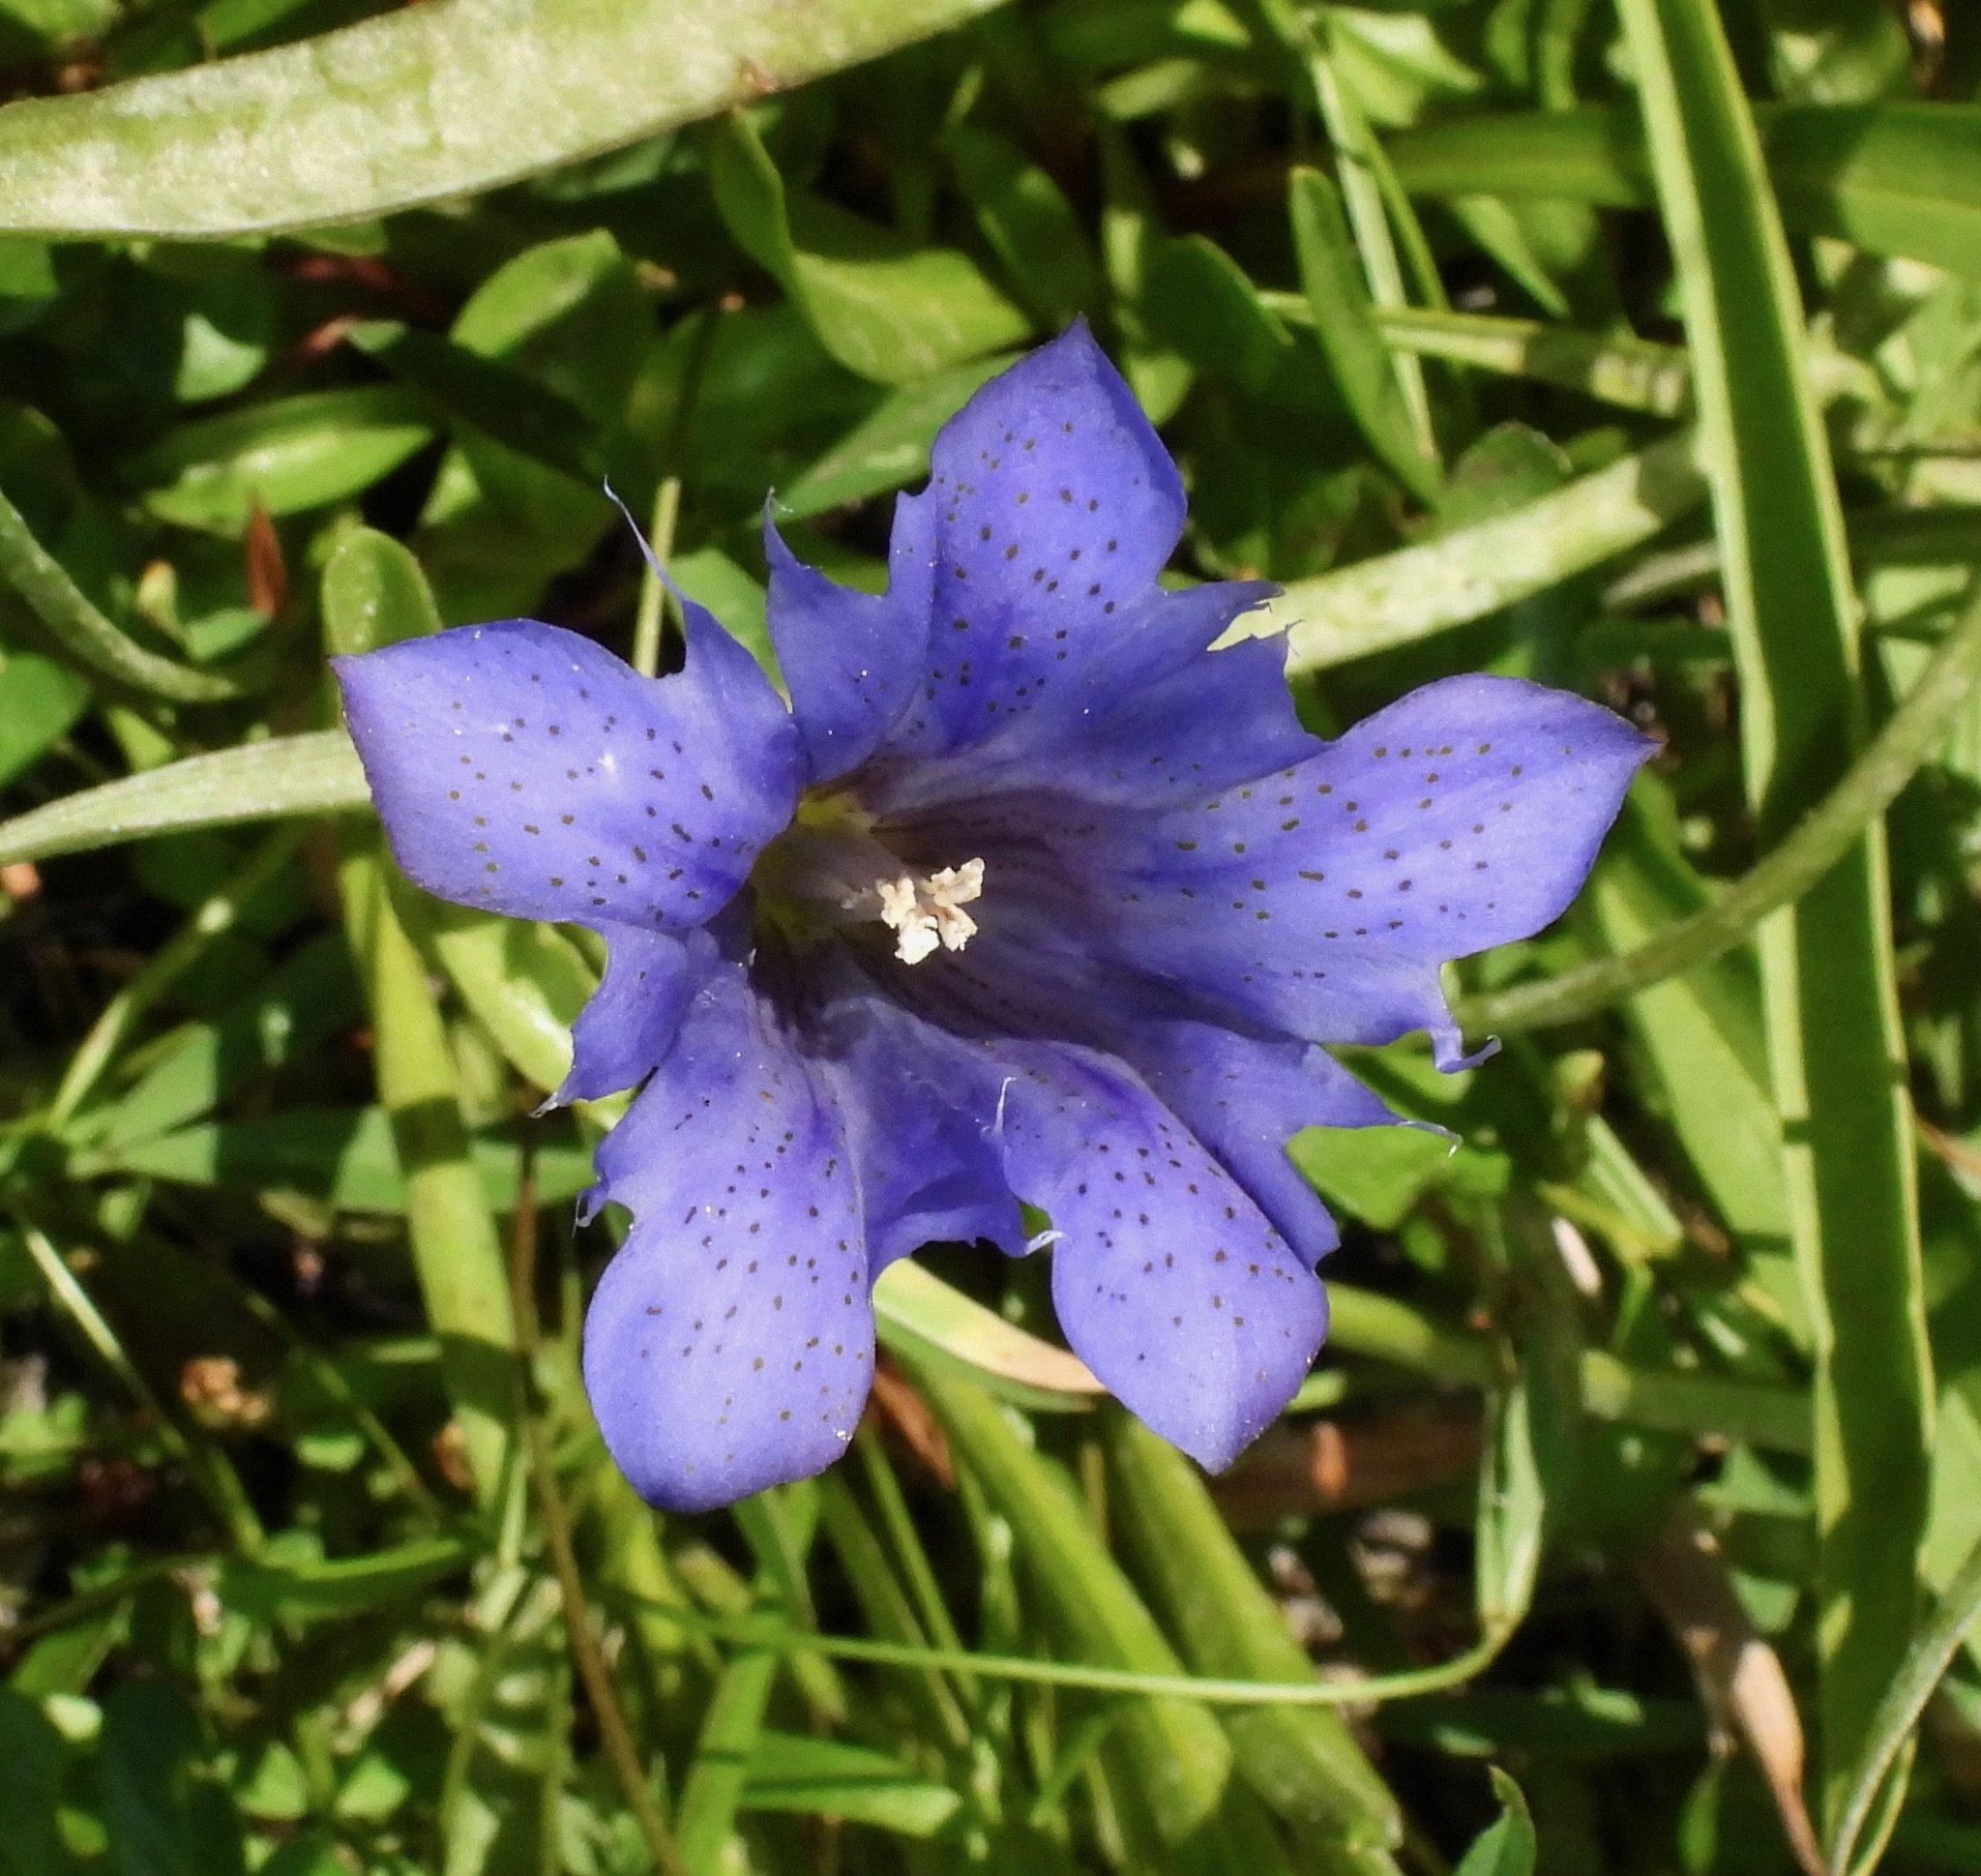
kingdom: Plantae
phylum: Tracheophyta
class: Magnoliopsida
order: Gentianales
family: Gentianaceae
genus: Gentiana
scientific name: Gentiana newberryi
